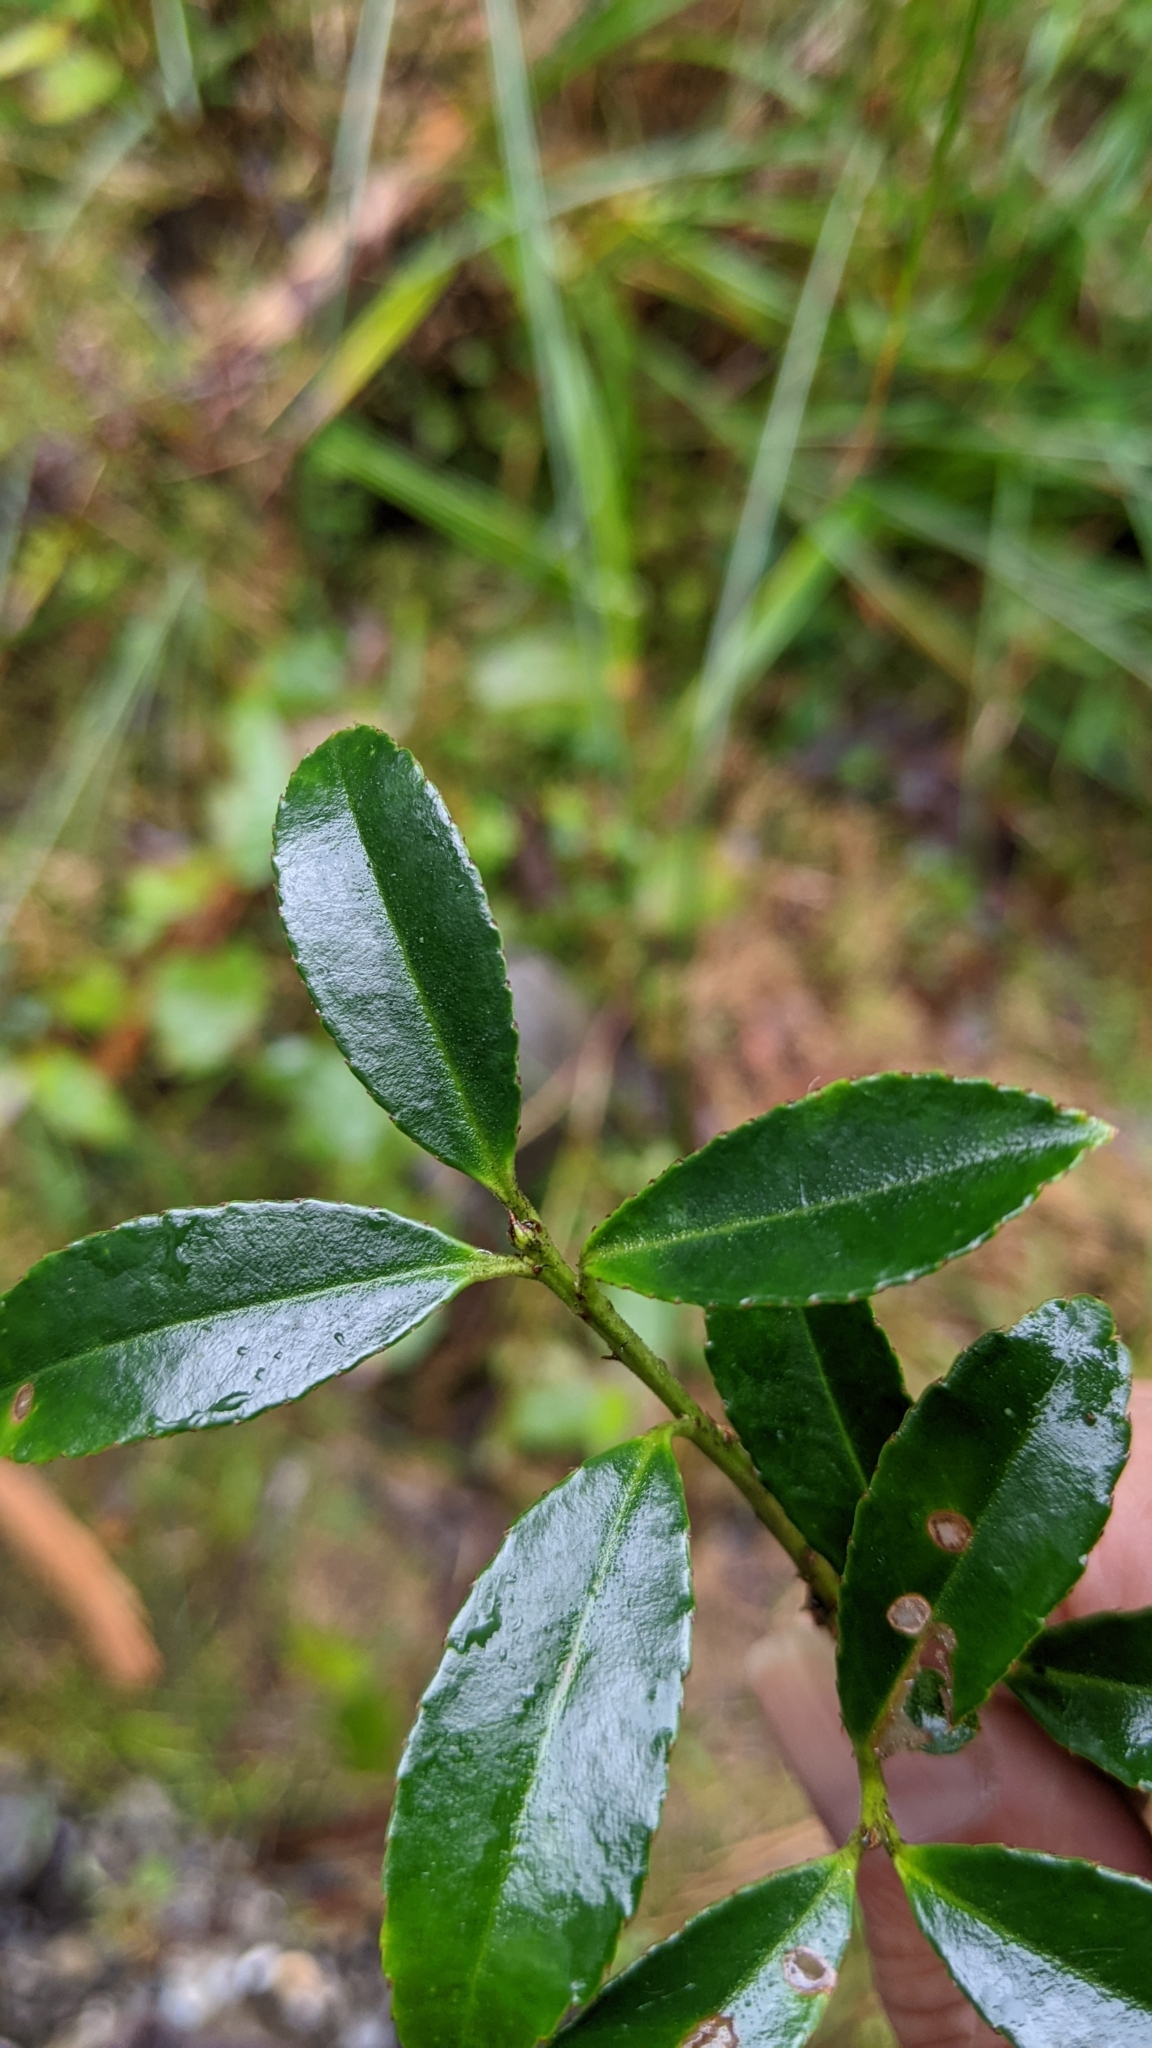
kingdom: Plantae
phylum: Tracheophyta
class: Magnoliopsida
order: Aquifoliales
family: Aquifoliaceae
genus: Ilex
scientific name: Ilex crenata
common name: Japanese holly
